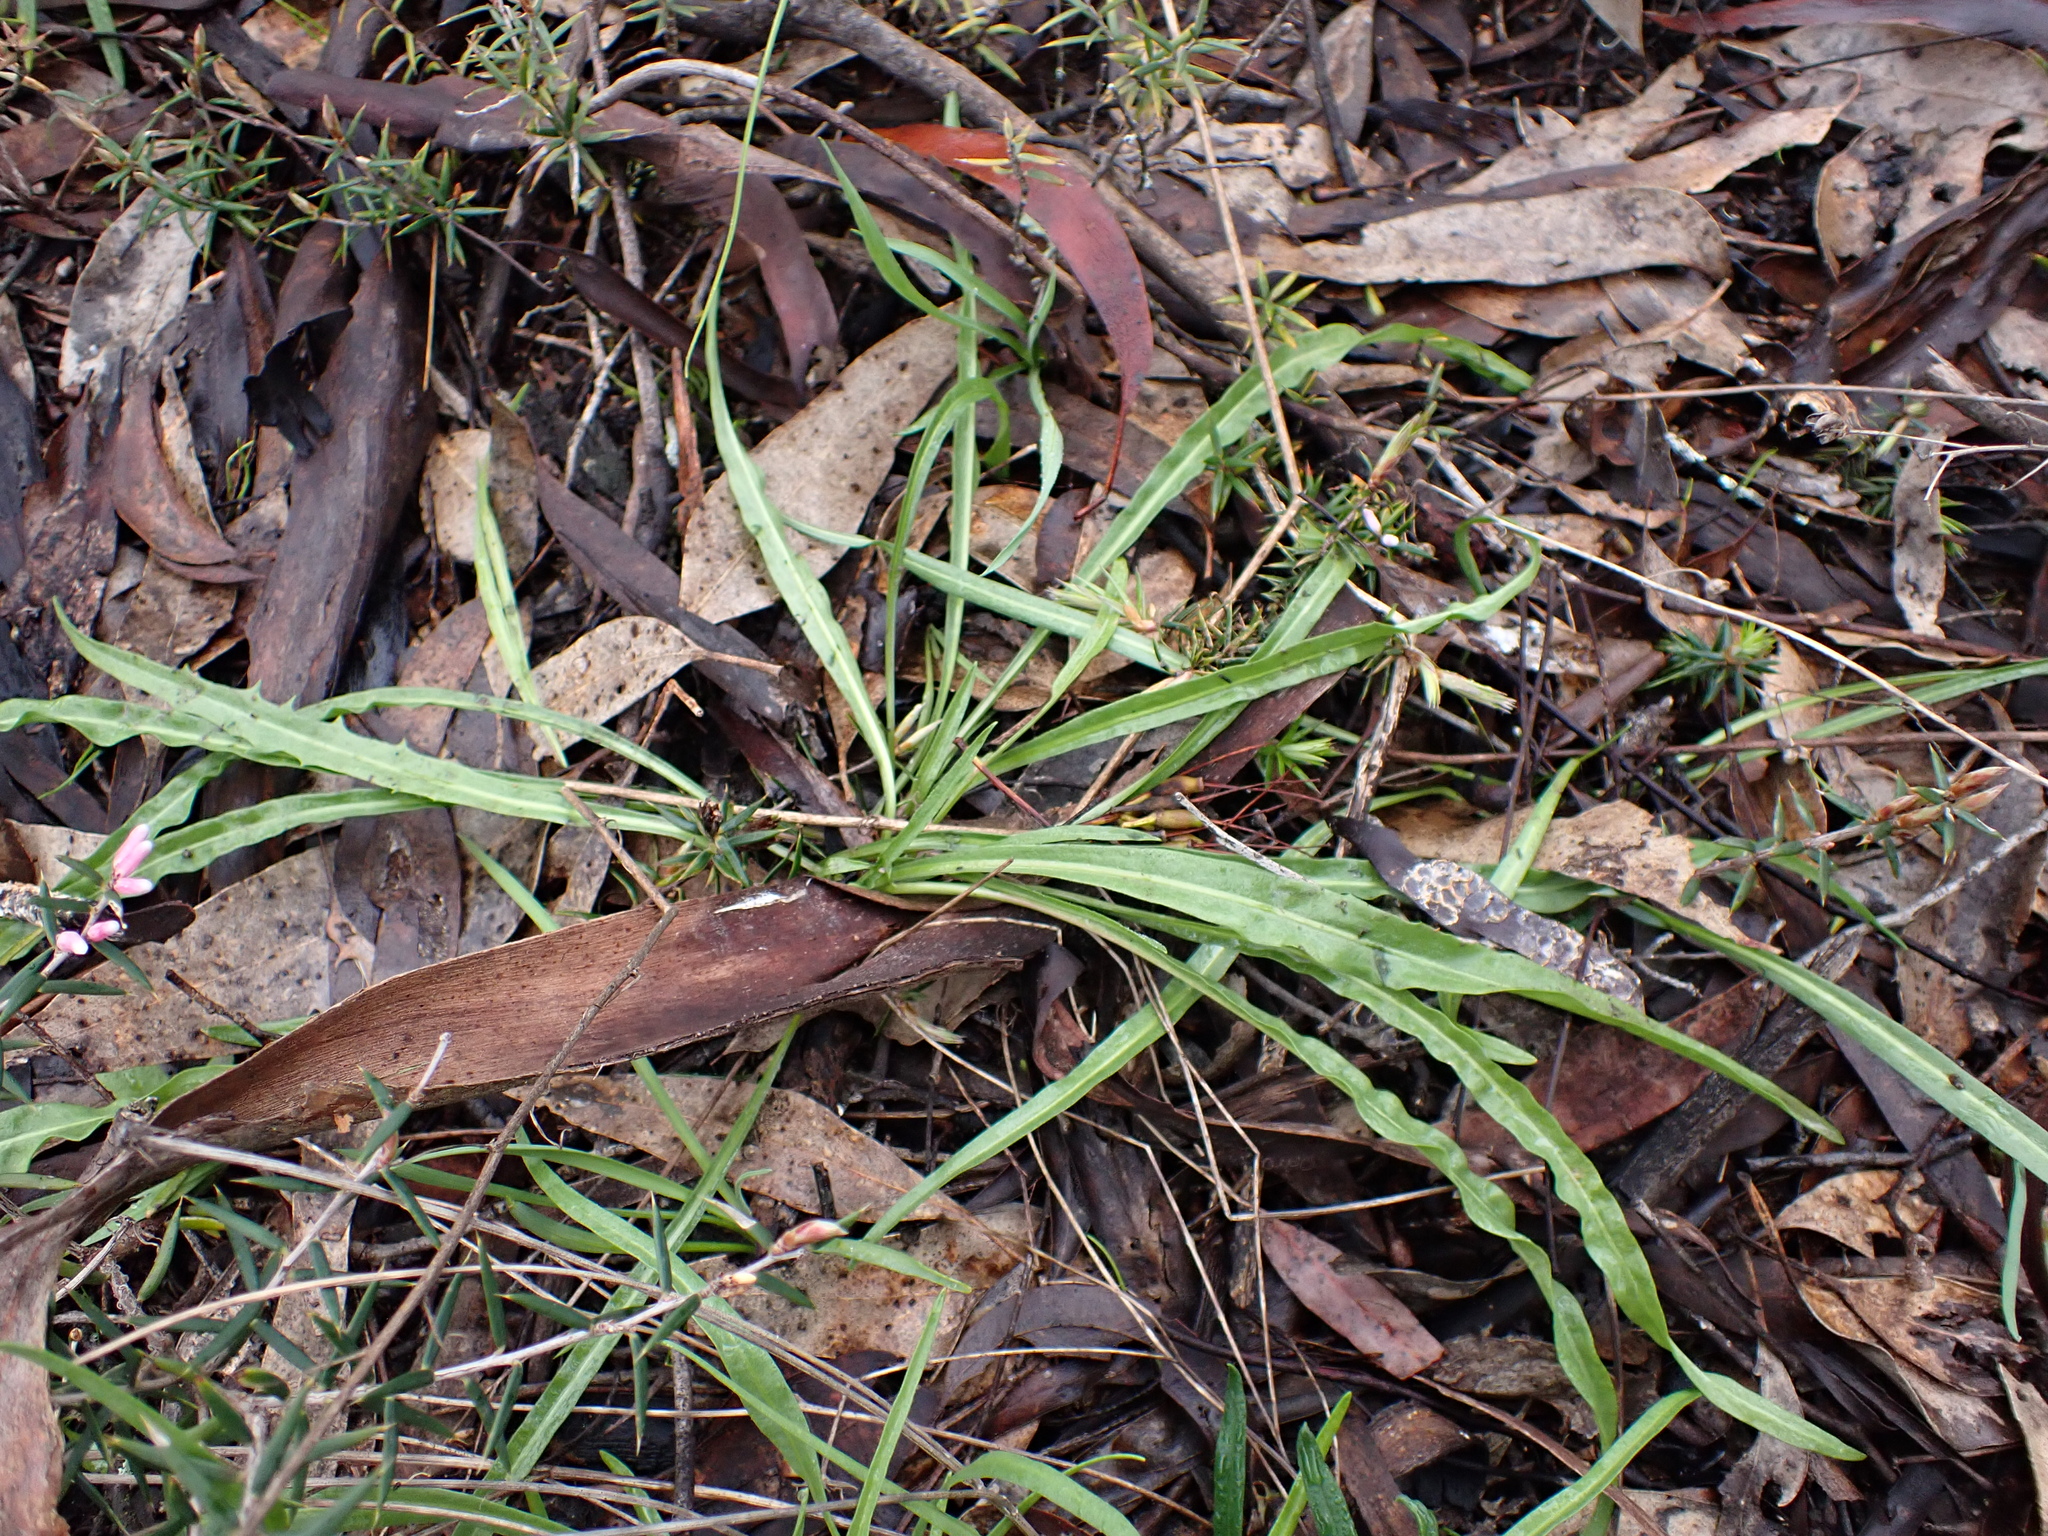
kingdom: Plantae
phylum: Tracheophyta
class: Magnoliopsida
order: Asterales
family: Asteraceae
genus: Microseris
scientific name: Microseris lanceolata
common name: Yam daisy
